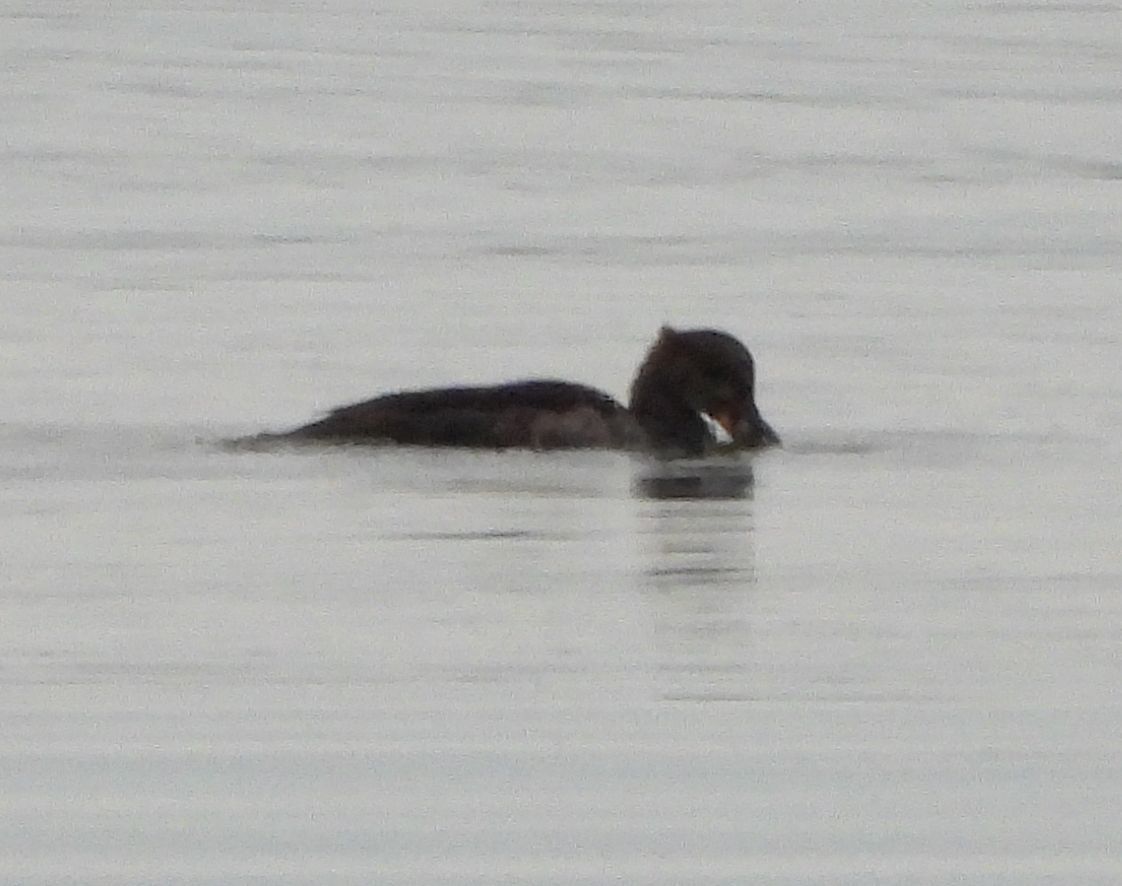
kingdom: Animalia
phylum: Chordata
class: Aves
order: Anseriformes
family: Anatidae
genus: Lophodytes
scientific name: Lophodytes cucullatus
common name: Hooded merganser
